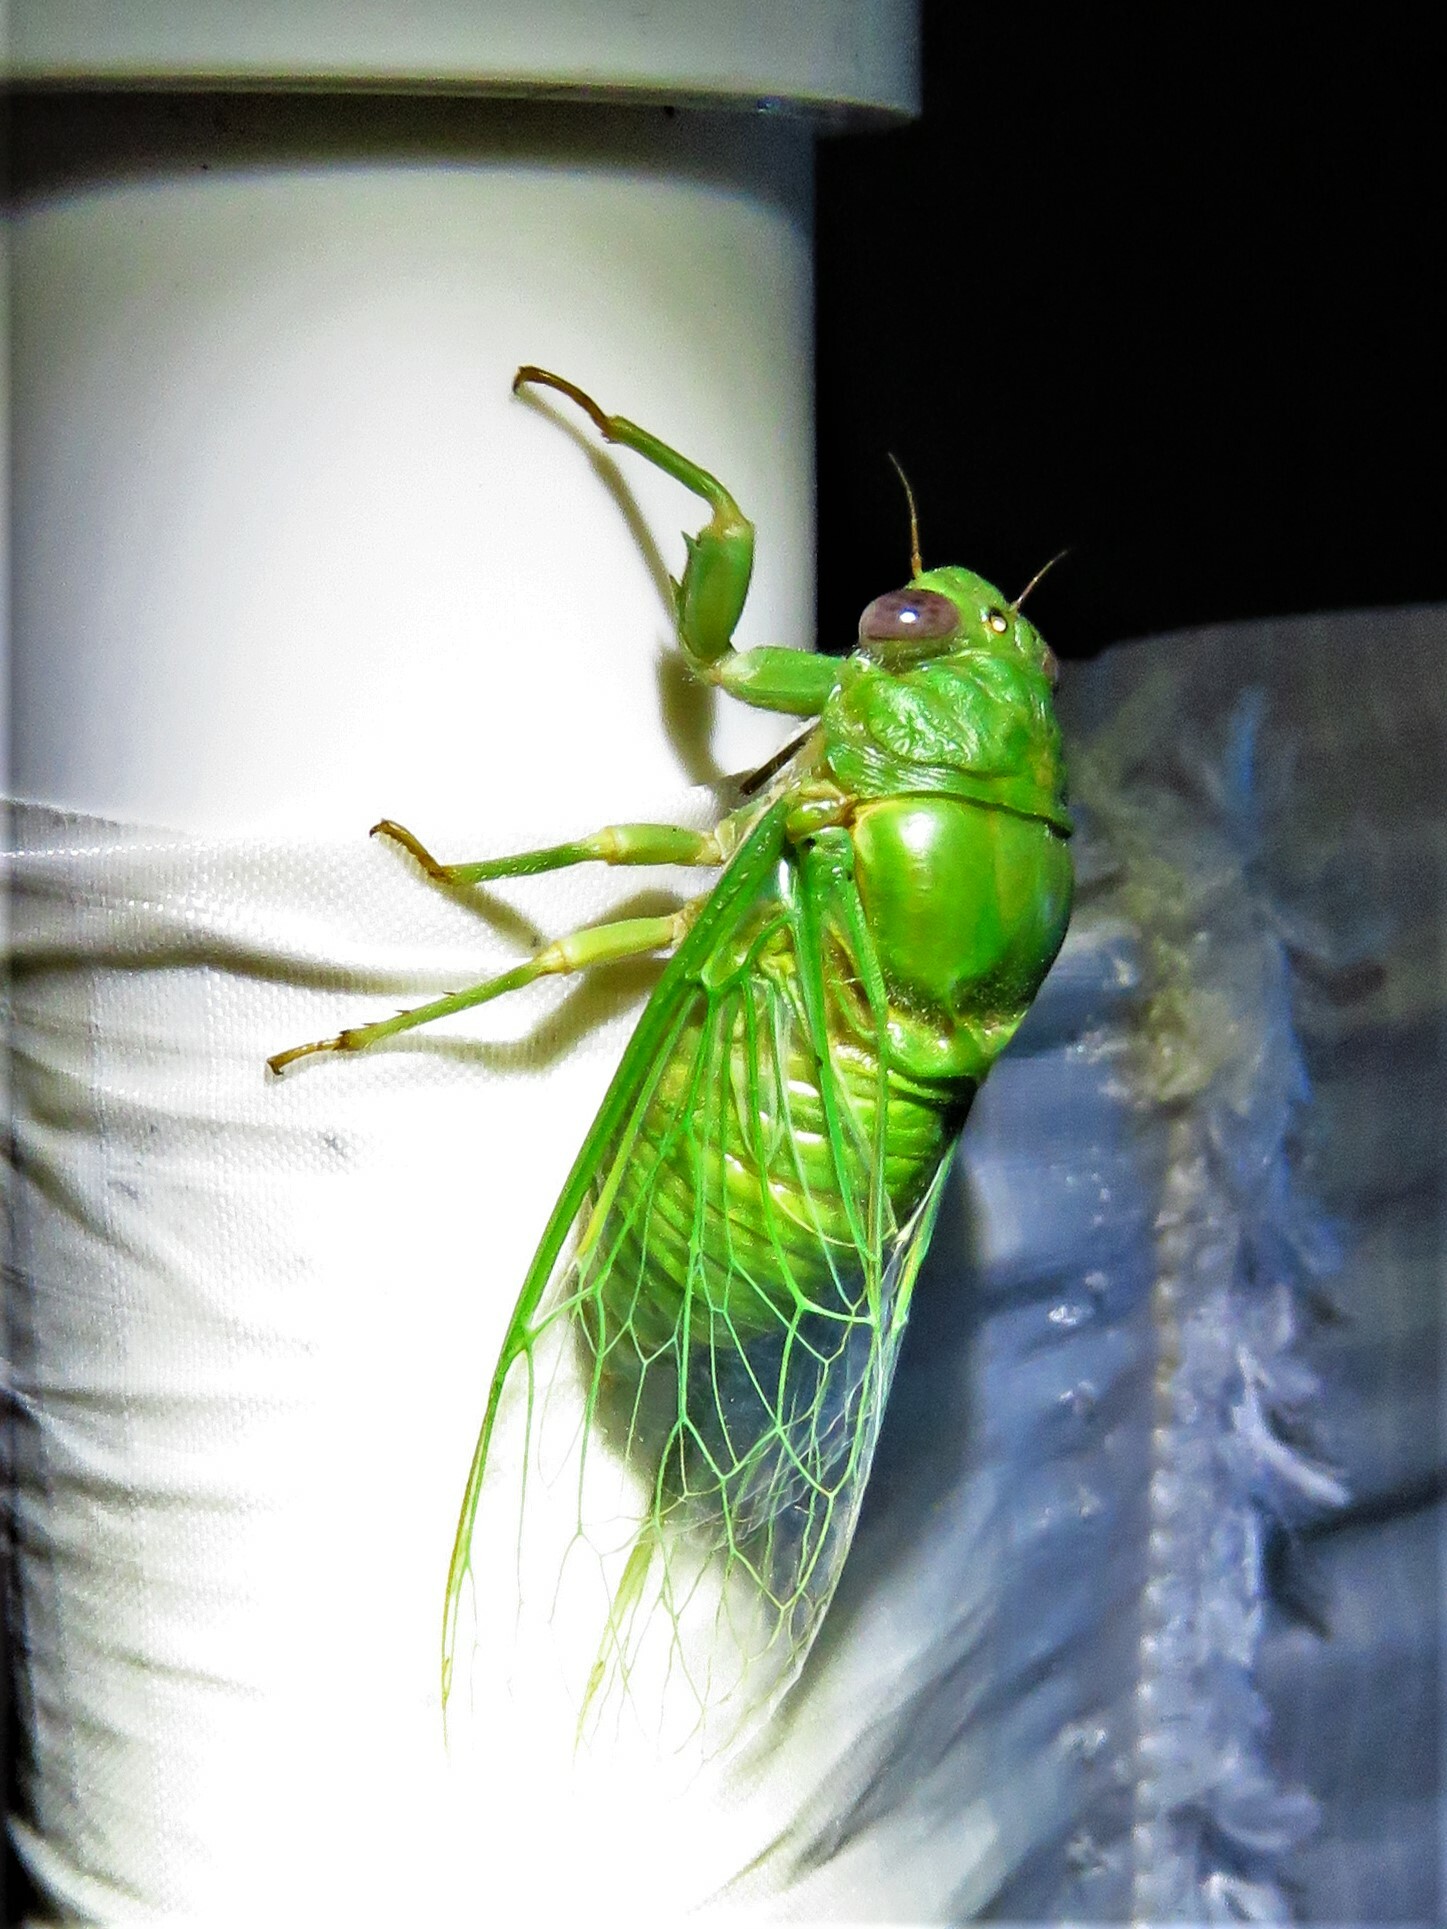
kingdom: Animalia
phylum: Arthropoda
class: Insecta
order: Hemiptera
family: Cicadidae
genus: Glaucopsaltria
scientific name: Glaucopsaltria viridis
